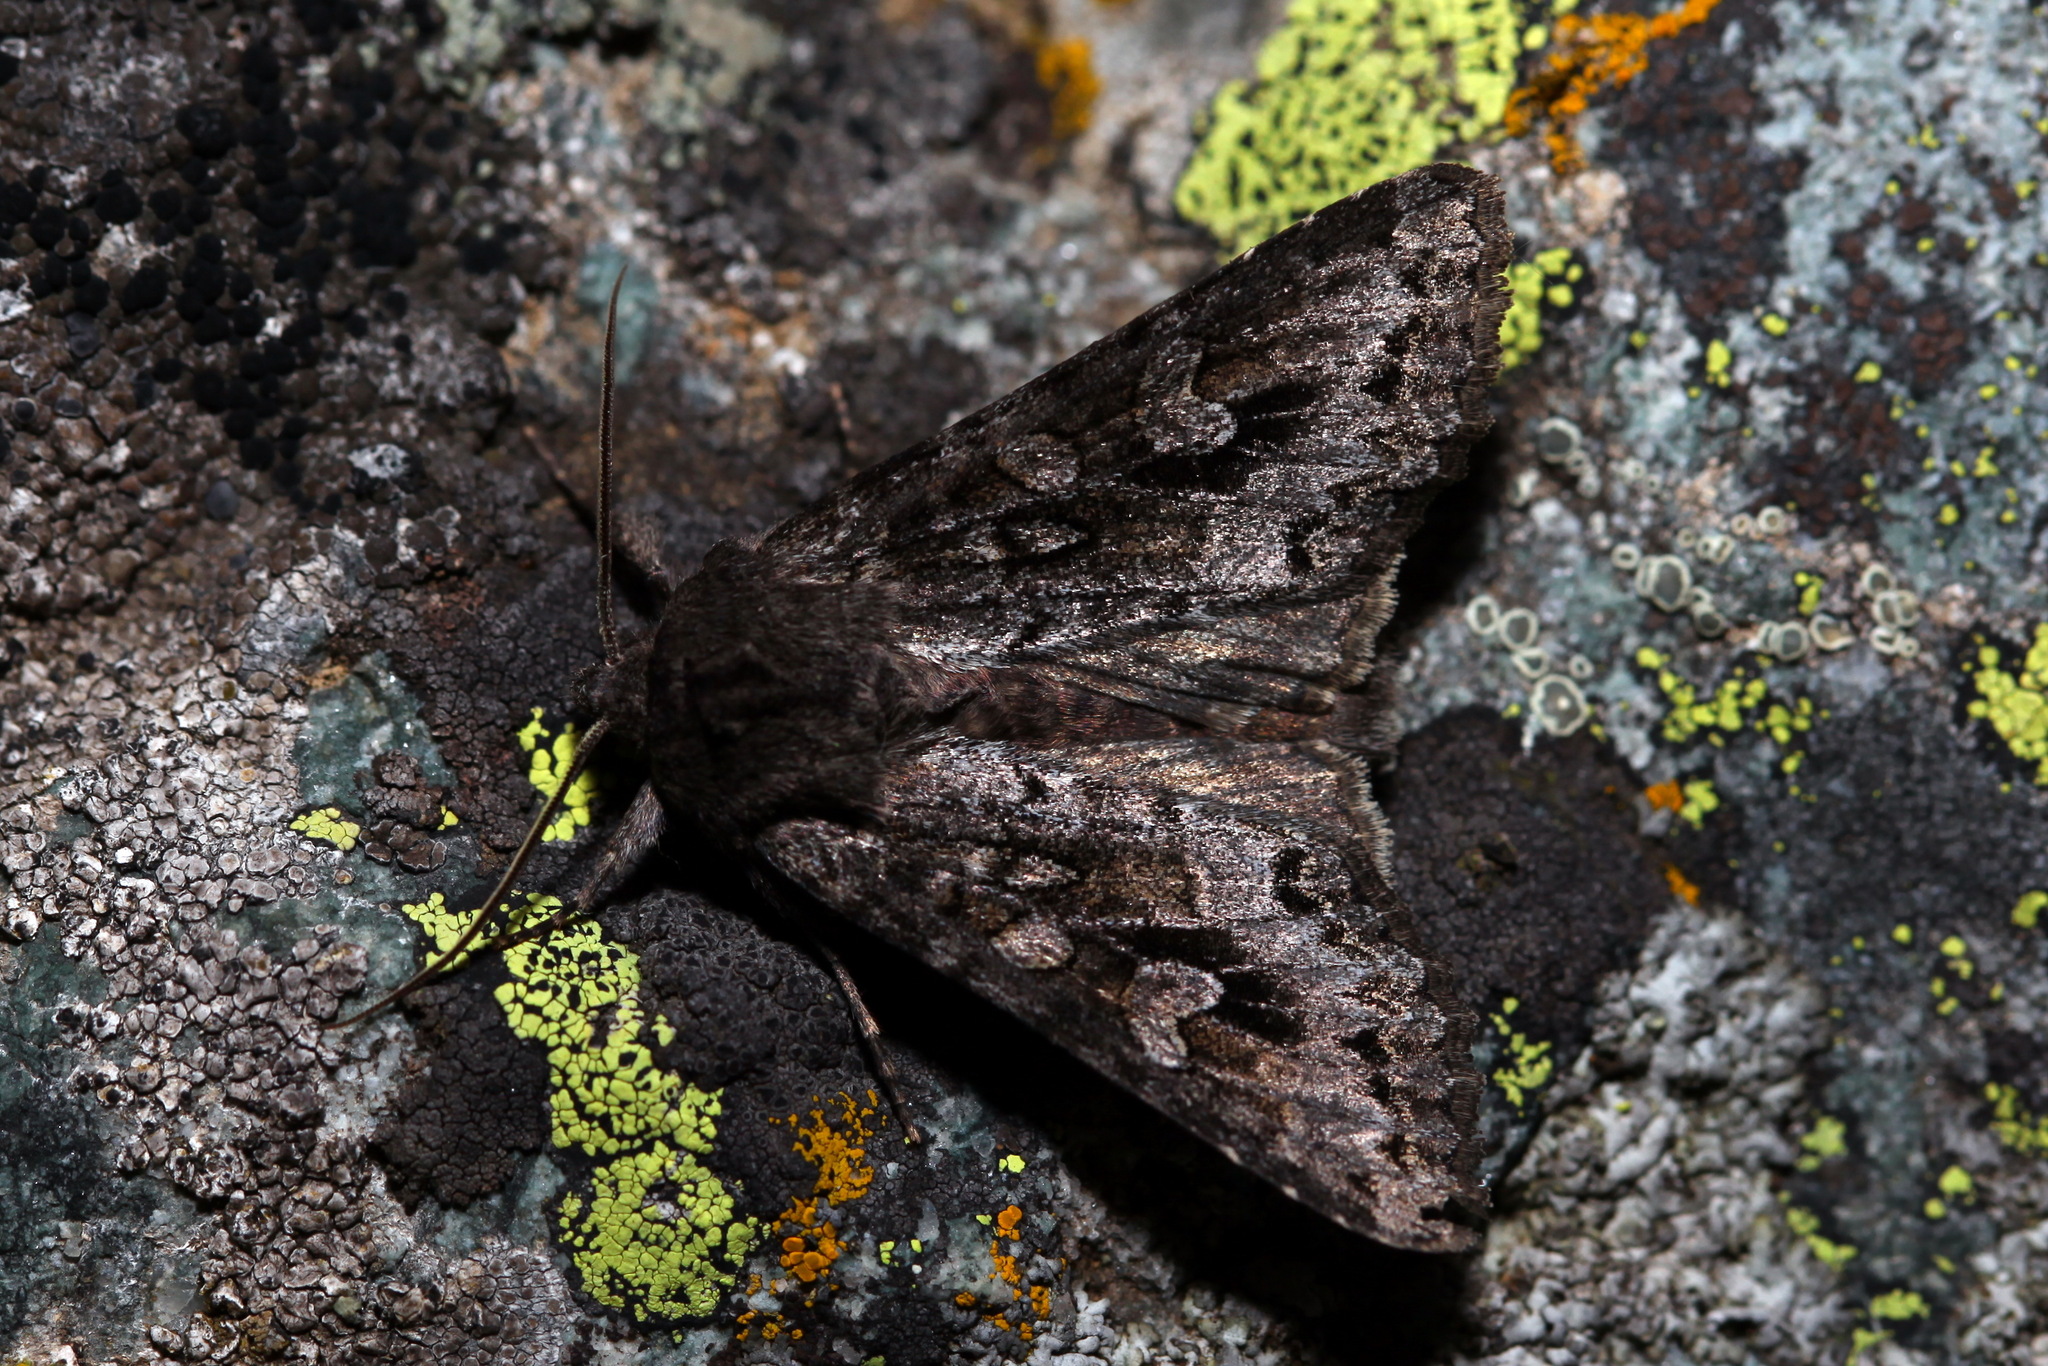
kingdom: Animalia
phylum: Arthropoda
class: Insecta
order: Lepidoptera
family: Noctuidae
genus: Polia
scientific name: Polia tiefi
